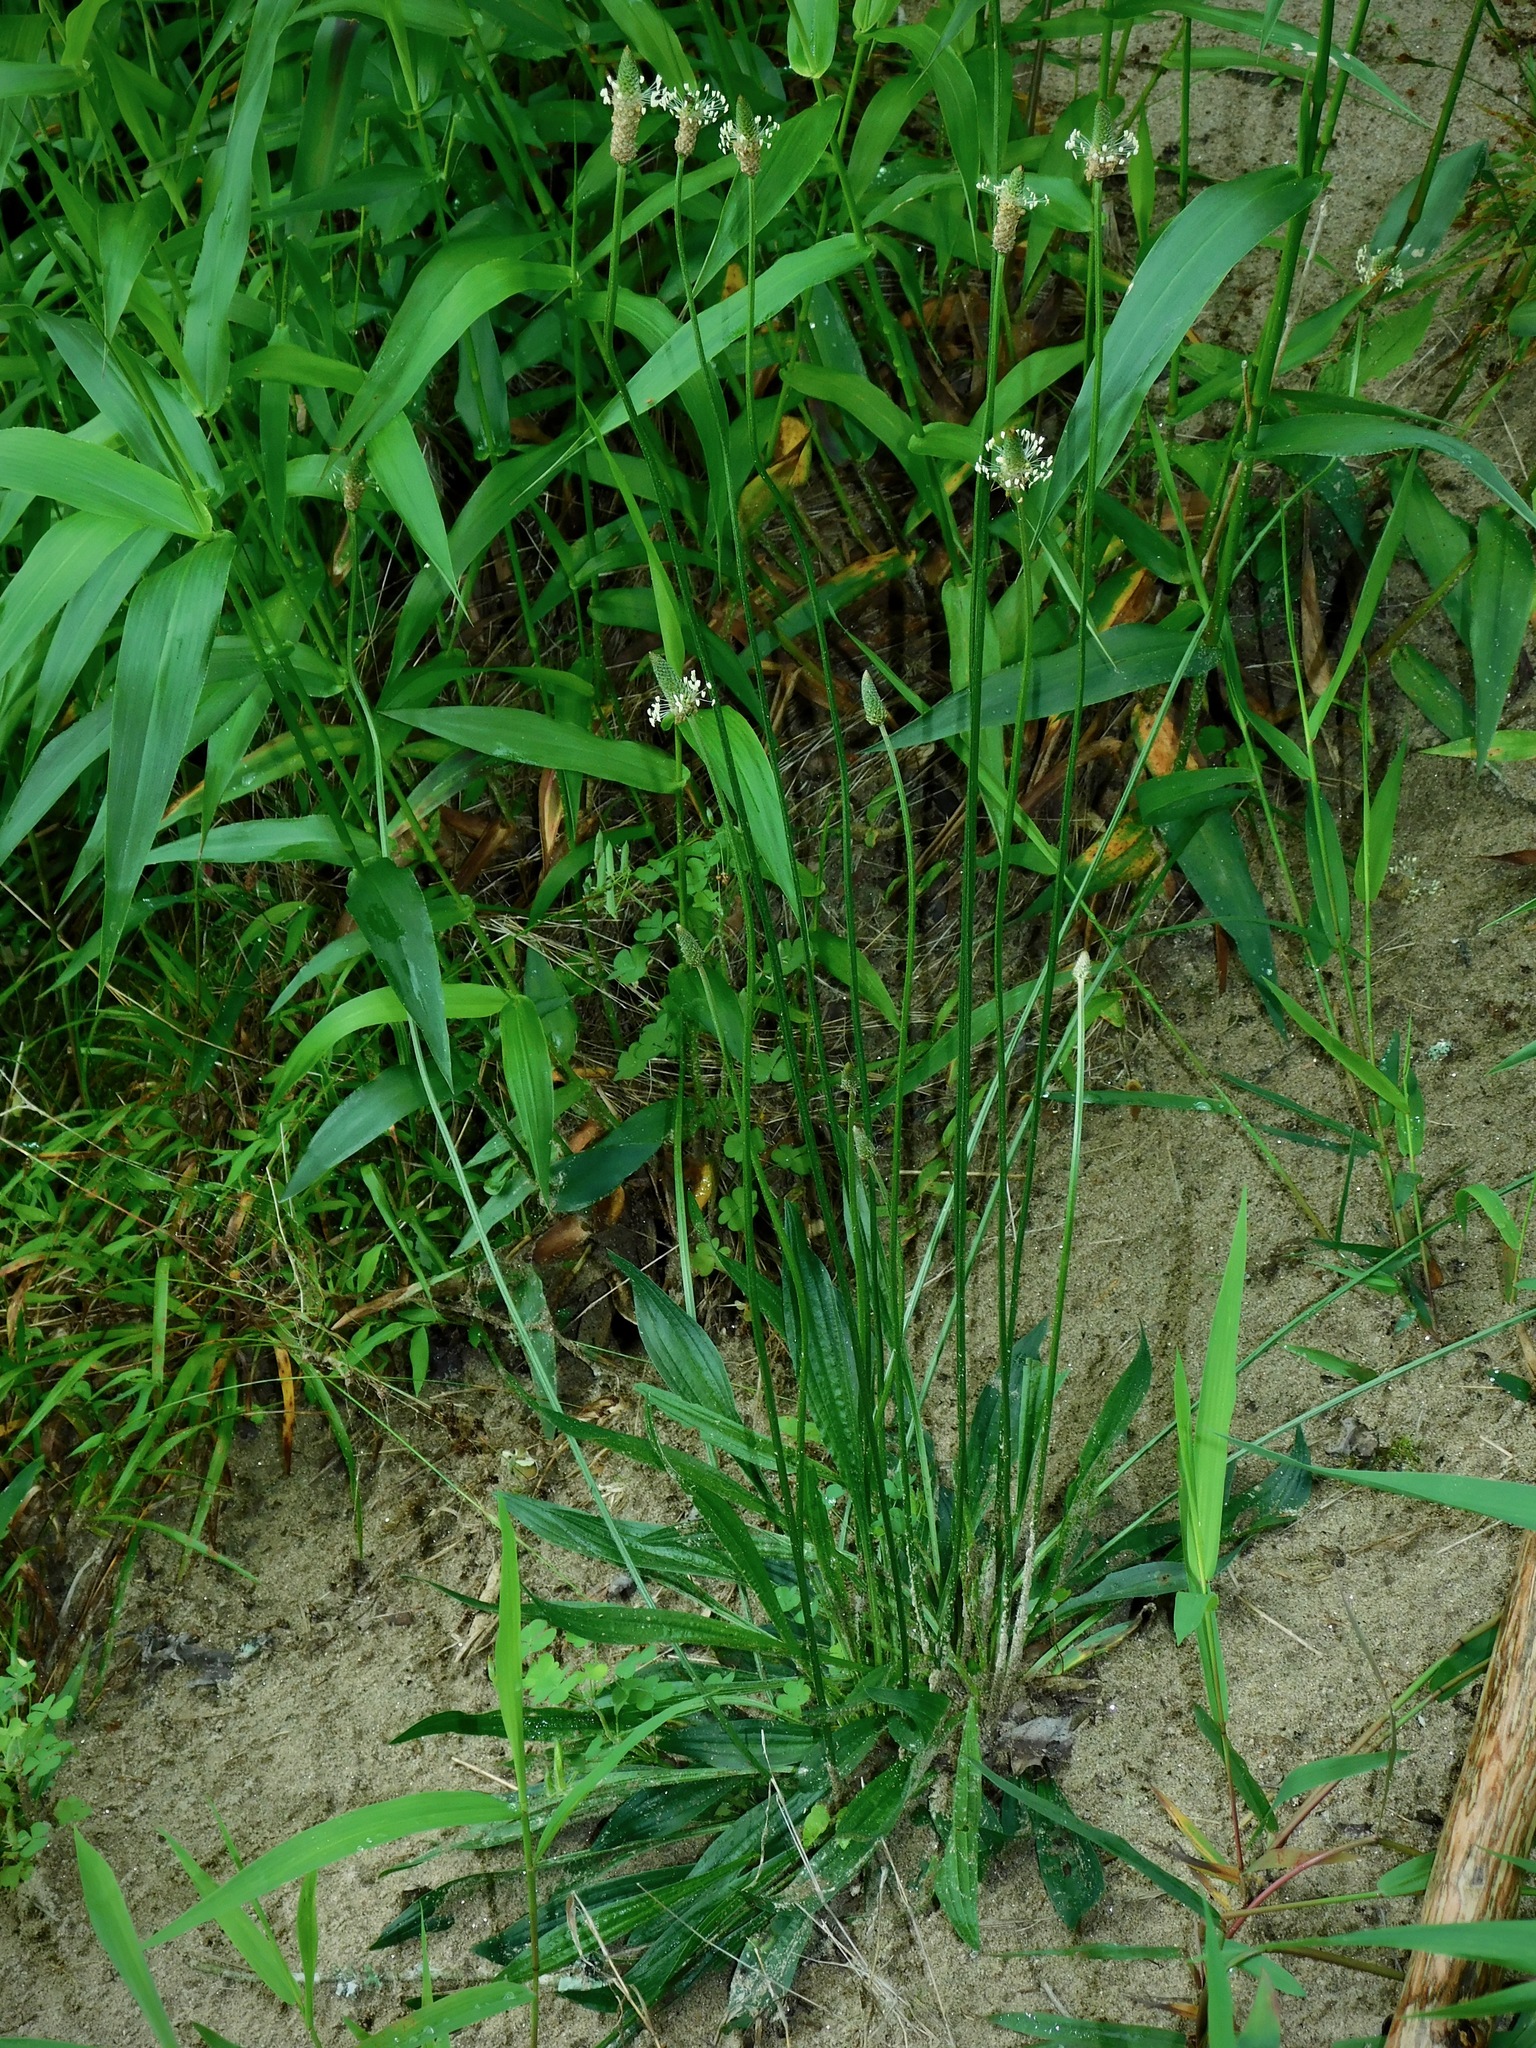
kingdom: Plantae
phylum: Tracheophyta
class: Magnoliopsida
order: Lamiales
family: Plantaginaceae
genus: Plantago
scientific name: Plantago lanceolata
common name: Ribwort plantain
